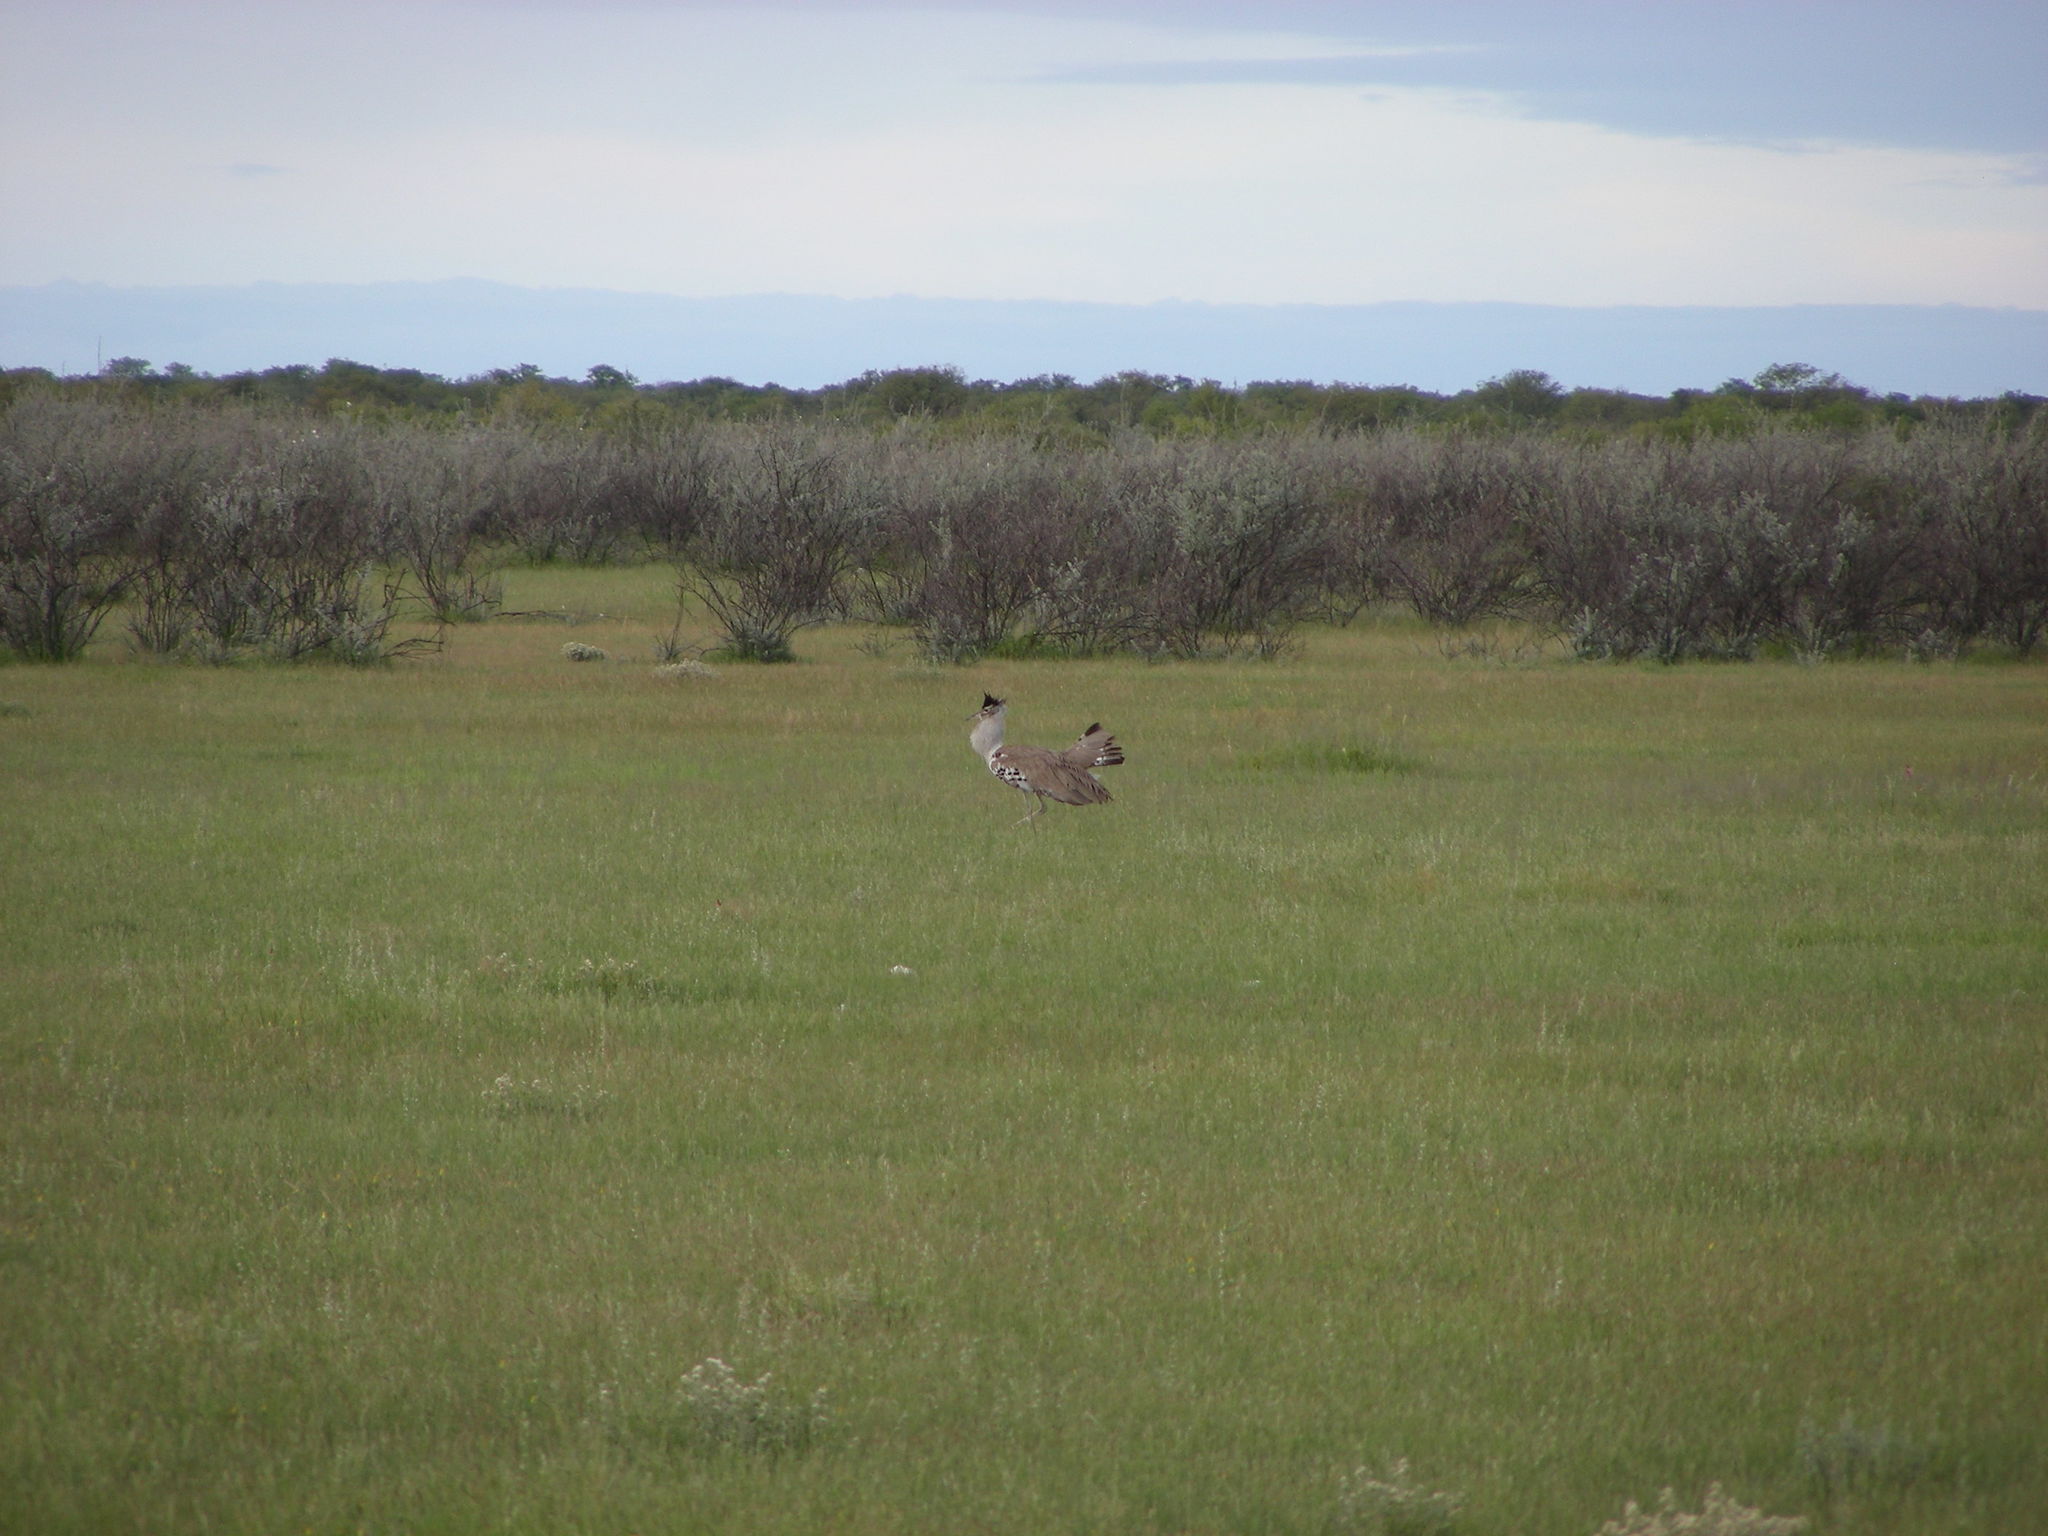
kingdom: Animalia
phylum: Chordata
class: Aves
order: Otidiformes
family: Otididae
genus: Ardeotis
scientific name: Ardeotis kori
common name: Kori bustard
